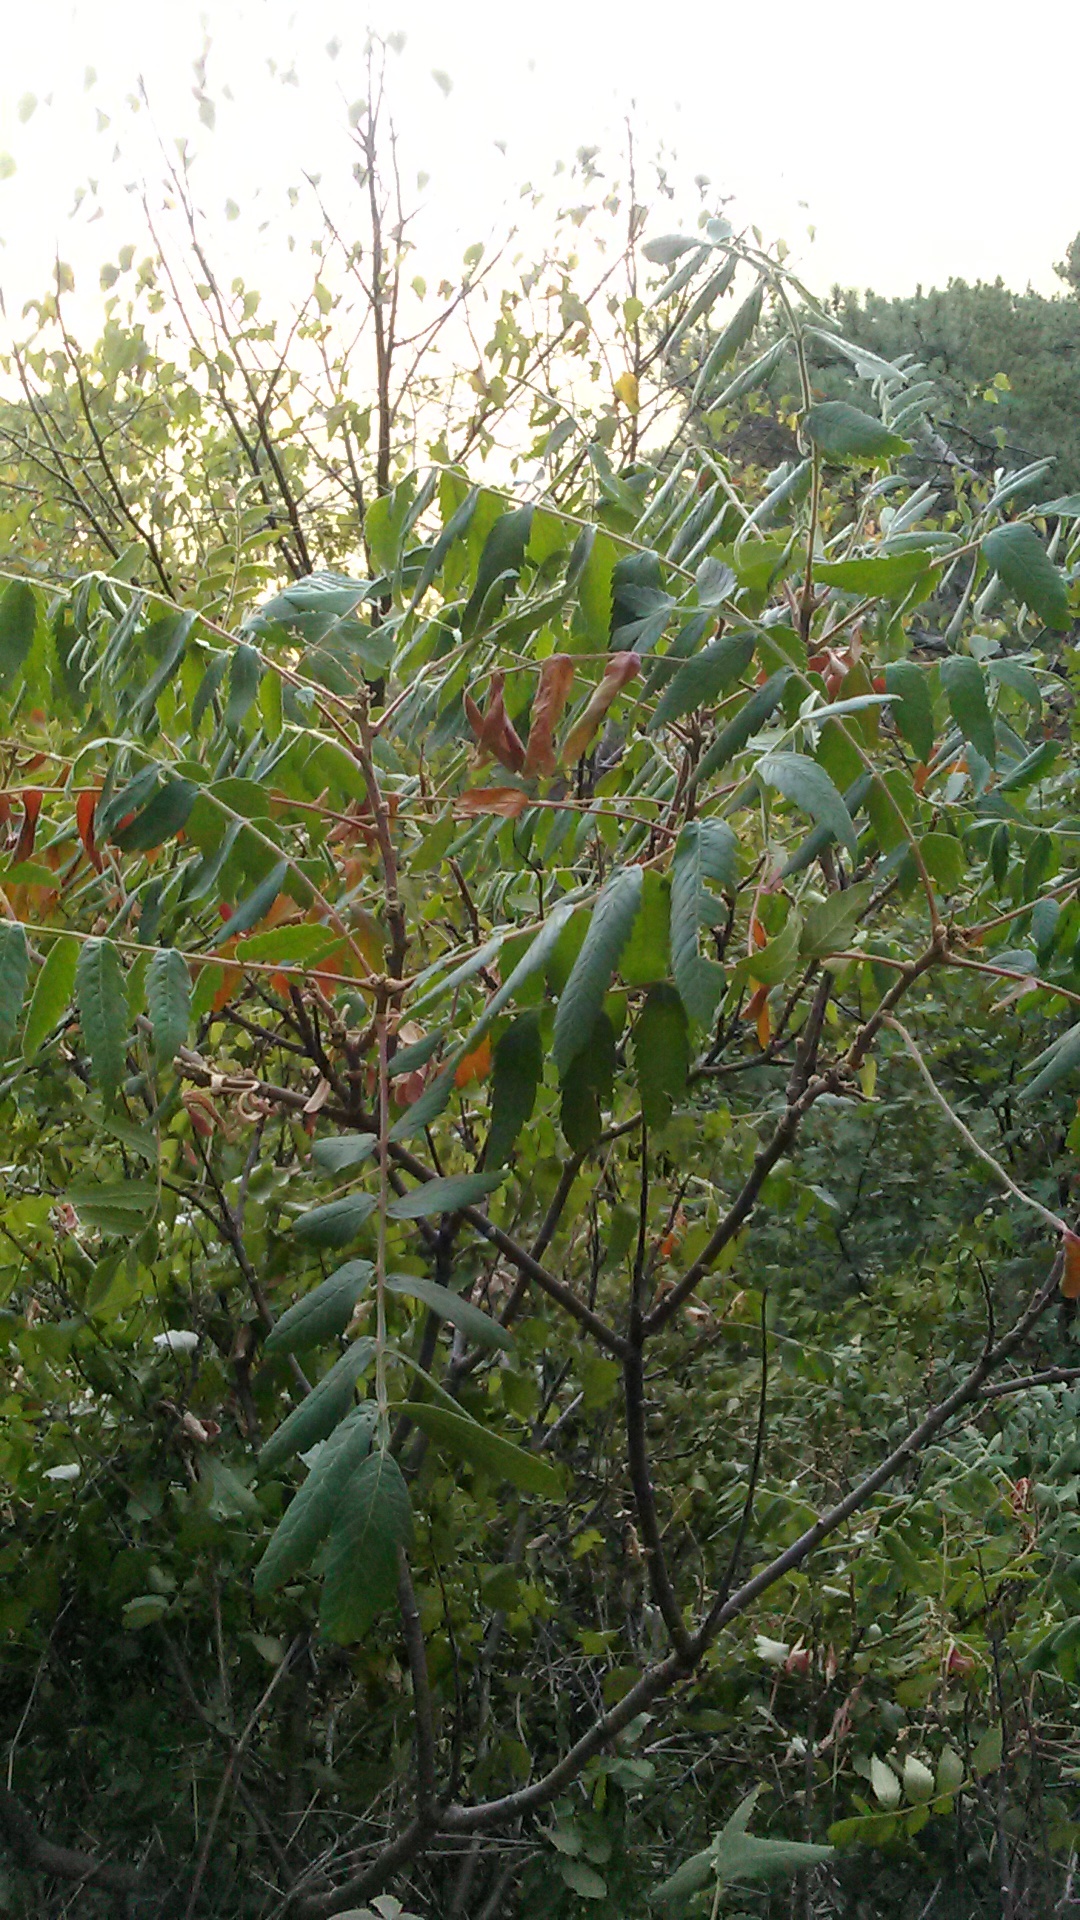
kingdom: Plantae
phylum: Tracheophyta
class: Magnoliopsida
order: Rosales
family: Rosaceae
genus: Sorbus
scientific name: Sorbus aucuparia
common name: Rowan
